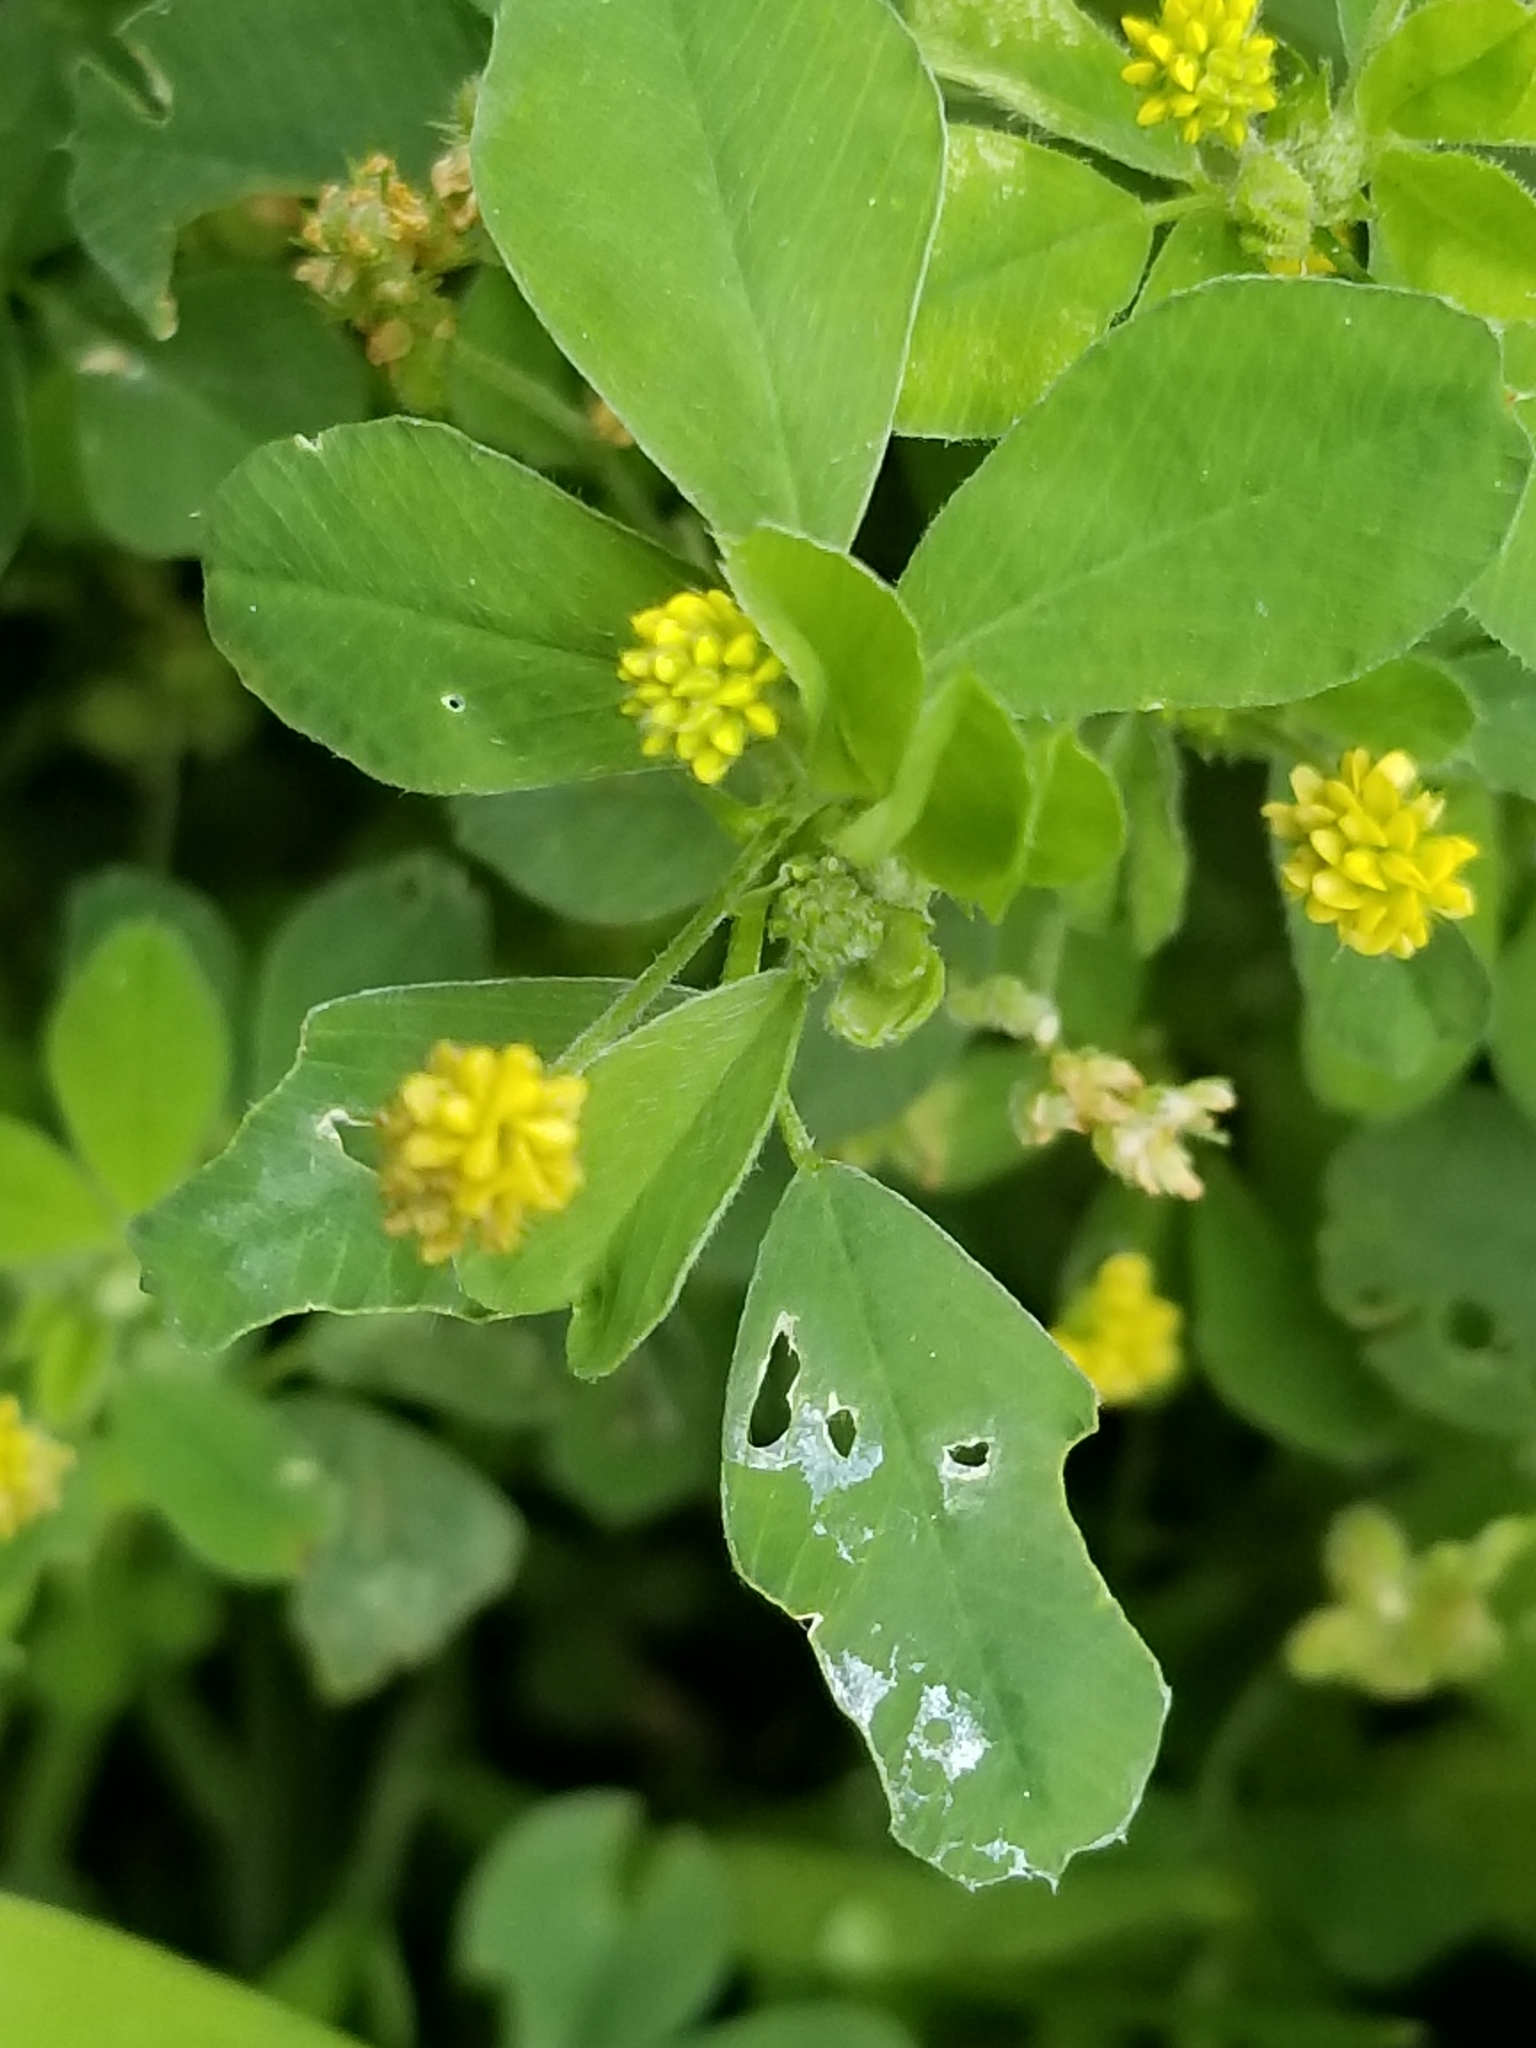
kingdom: Plantae
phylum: Tracheophyta
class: Magnoliopsida
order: Fabales
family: Fabaceae
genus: Medicago
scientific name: Medicago lupulina
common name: Black medick
